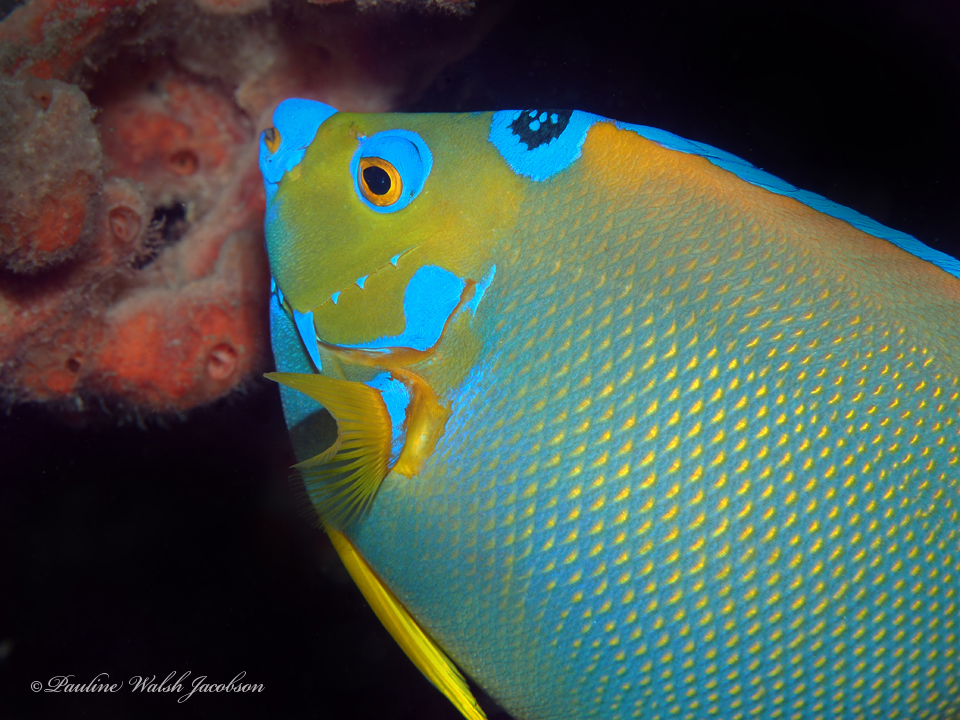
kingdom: Animalia
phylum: Chordata
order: Perciformes
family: Pomacanthidae
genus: Holacanthus
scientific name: Holacanthus ciliaris
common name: Queen angelfish
